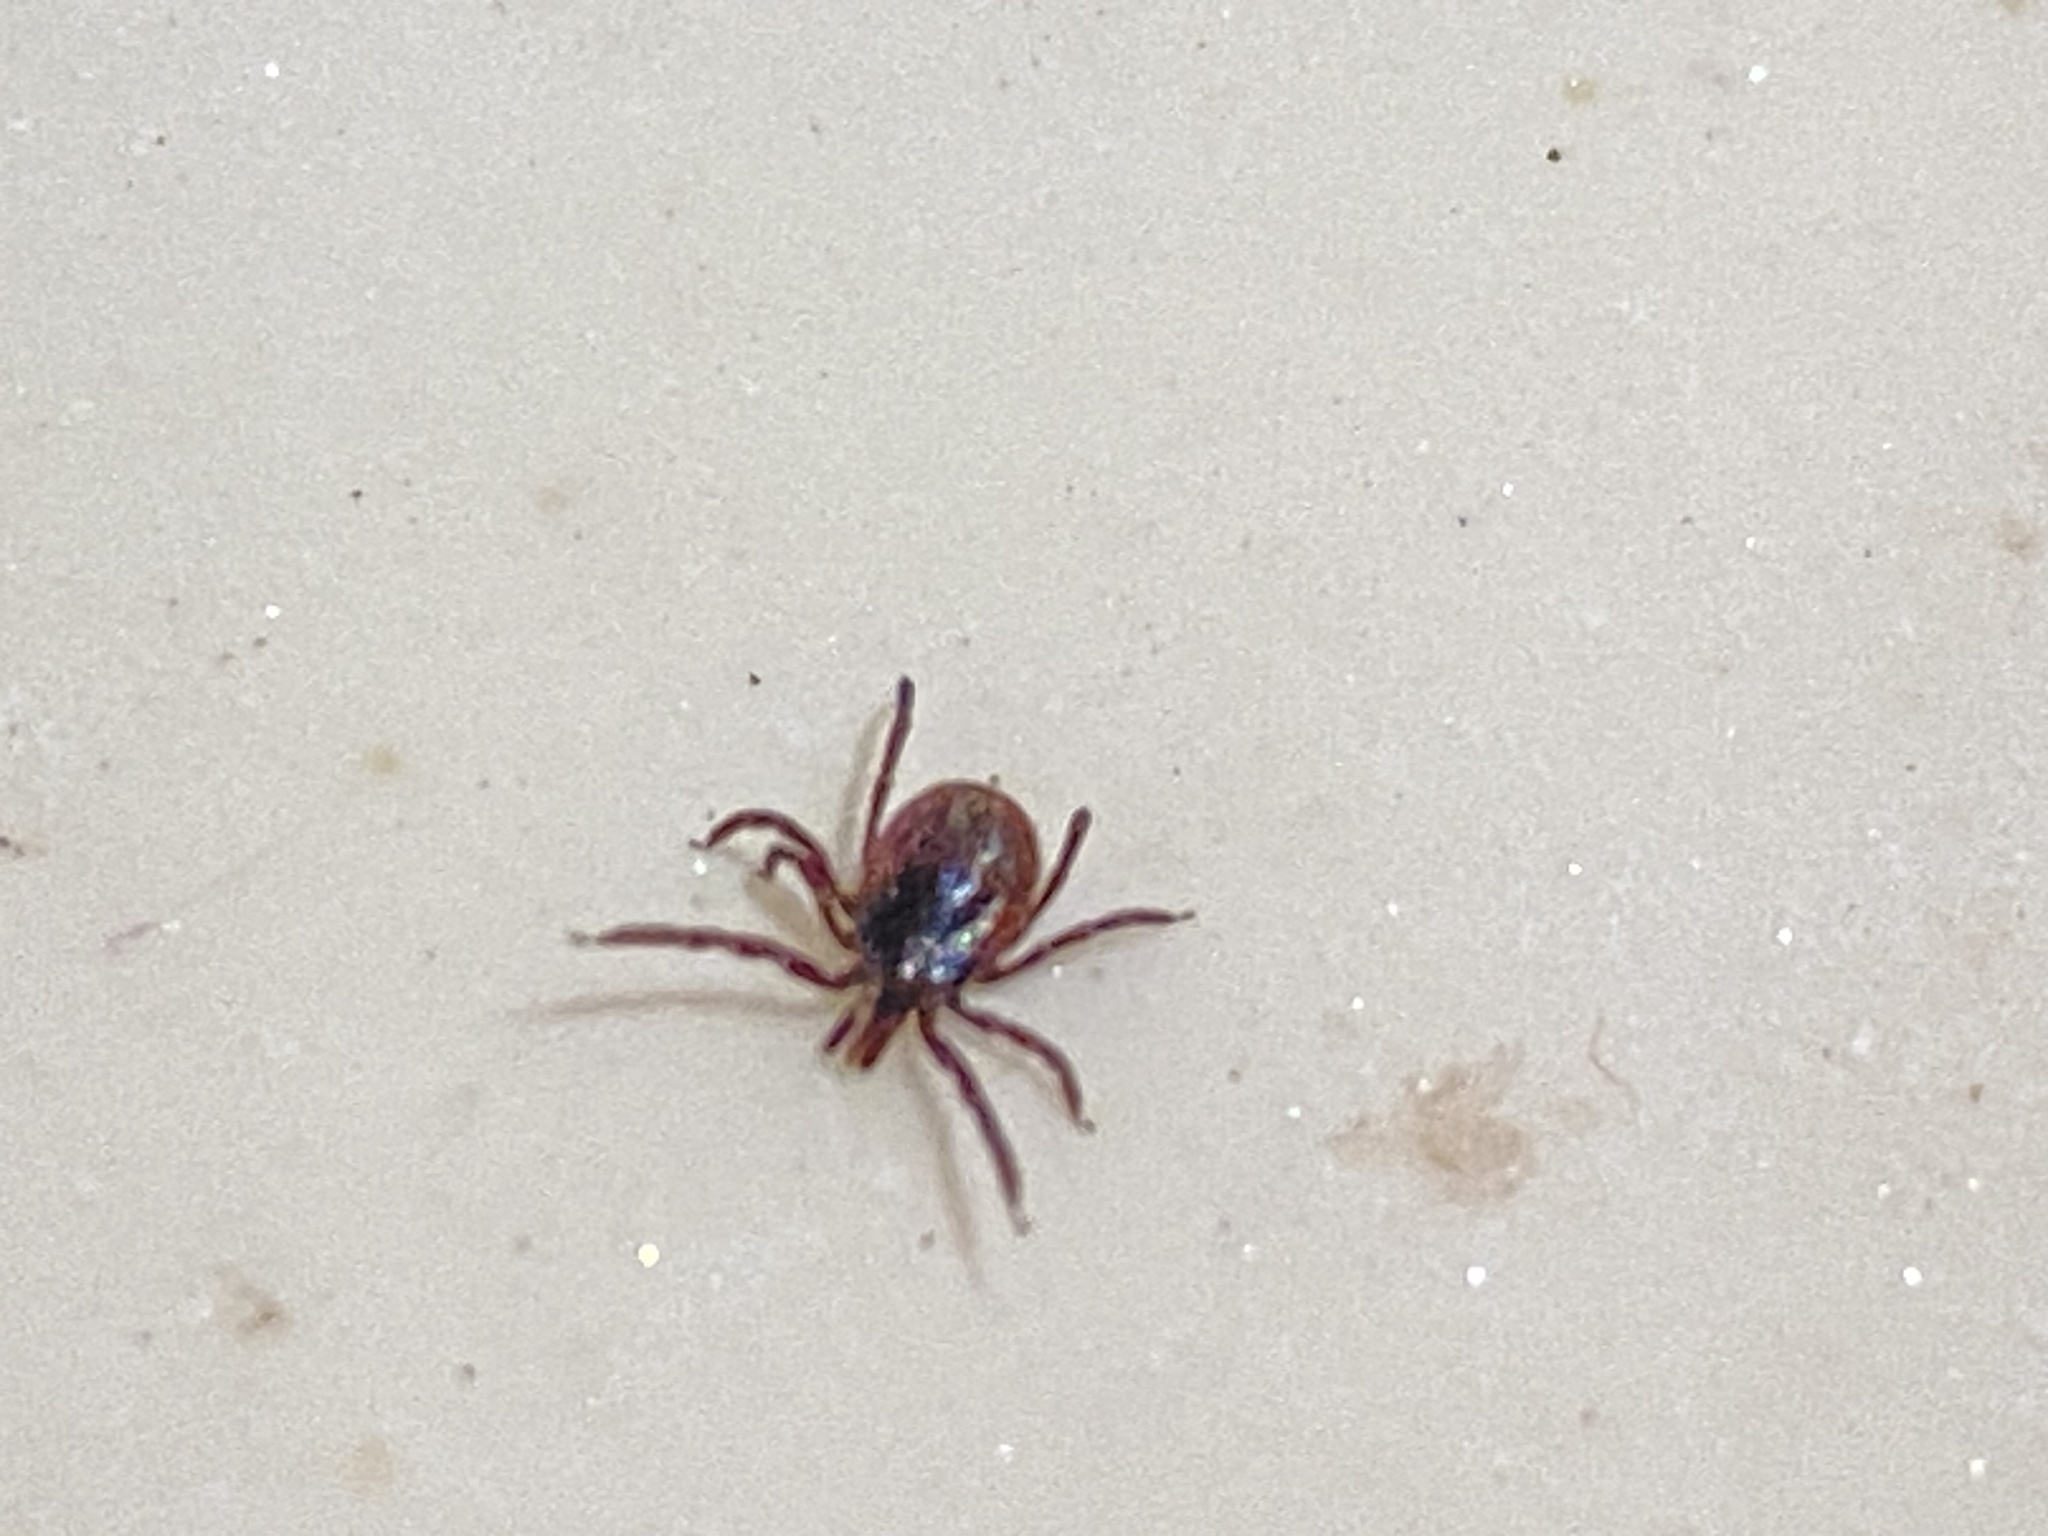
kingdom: Animalia
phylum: Arthropoda
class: Arachnida
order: Ixodida
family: Ixodidae
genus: Ixodes
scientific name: Ixodes pacificus
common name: California black-legged tick
